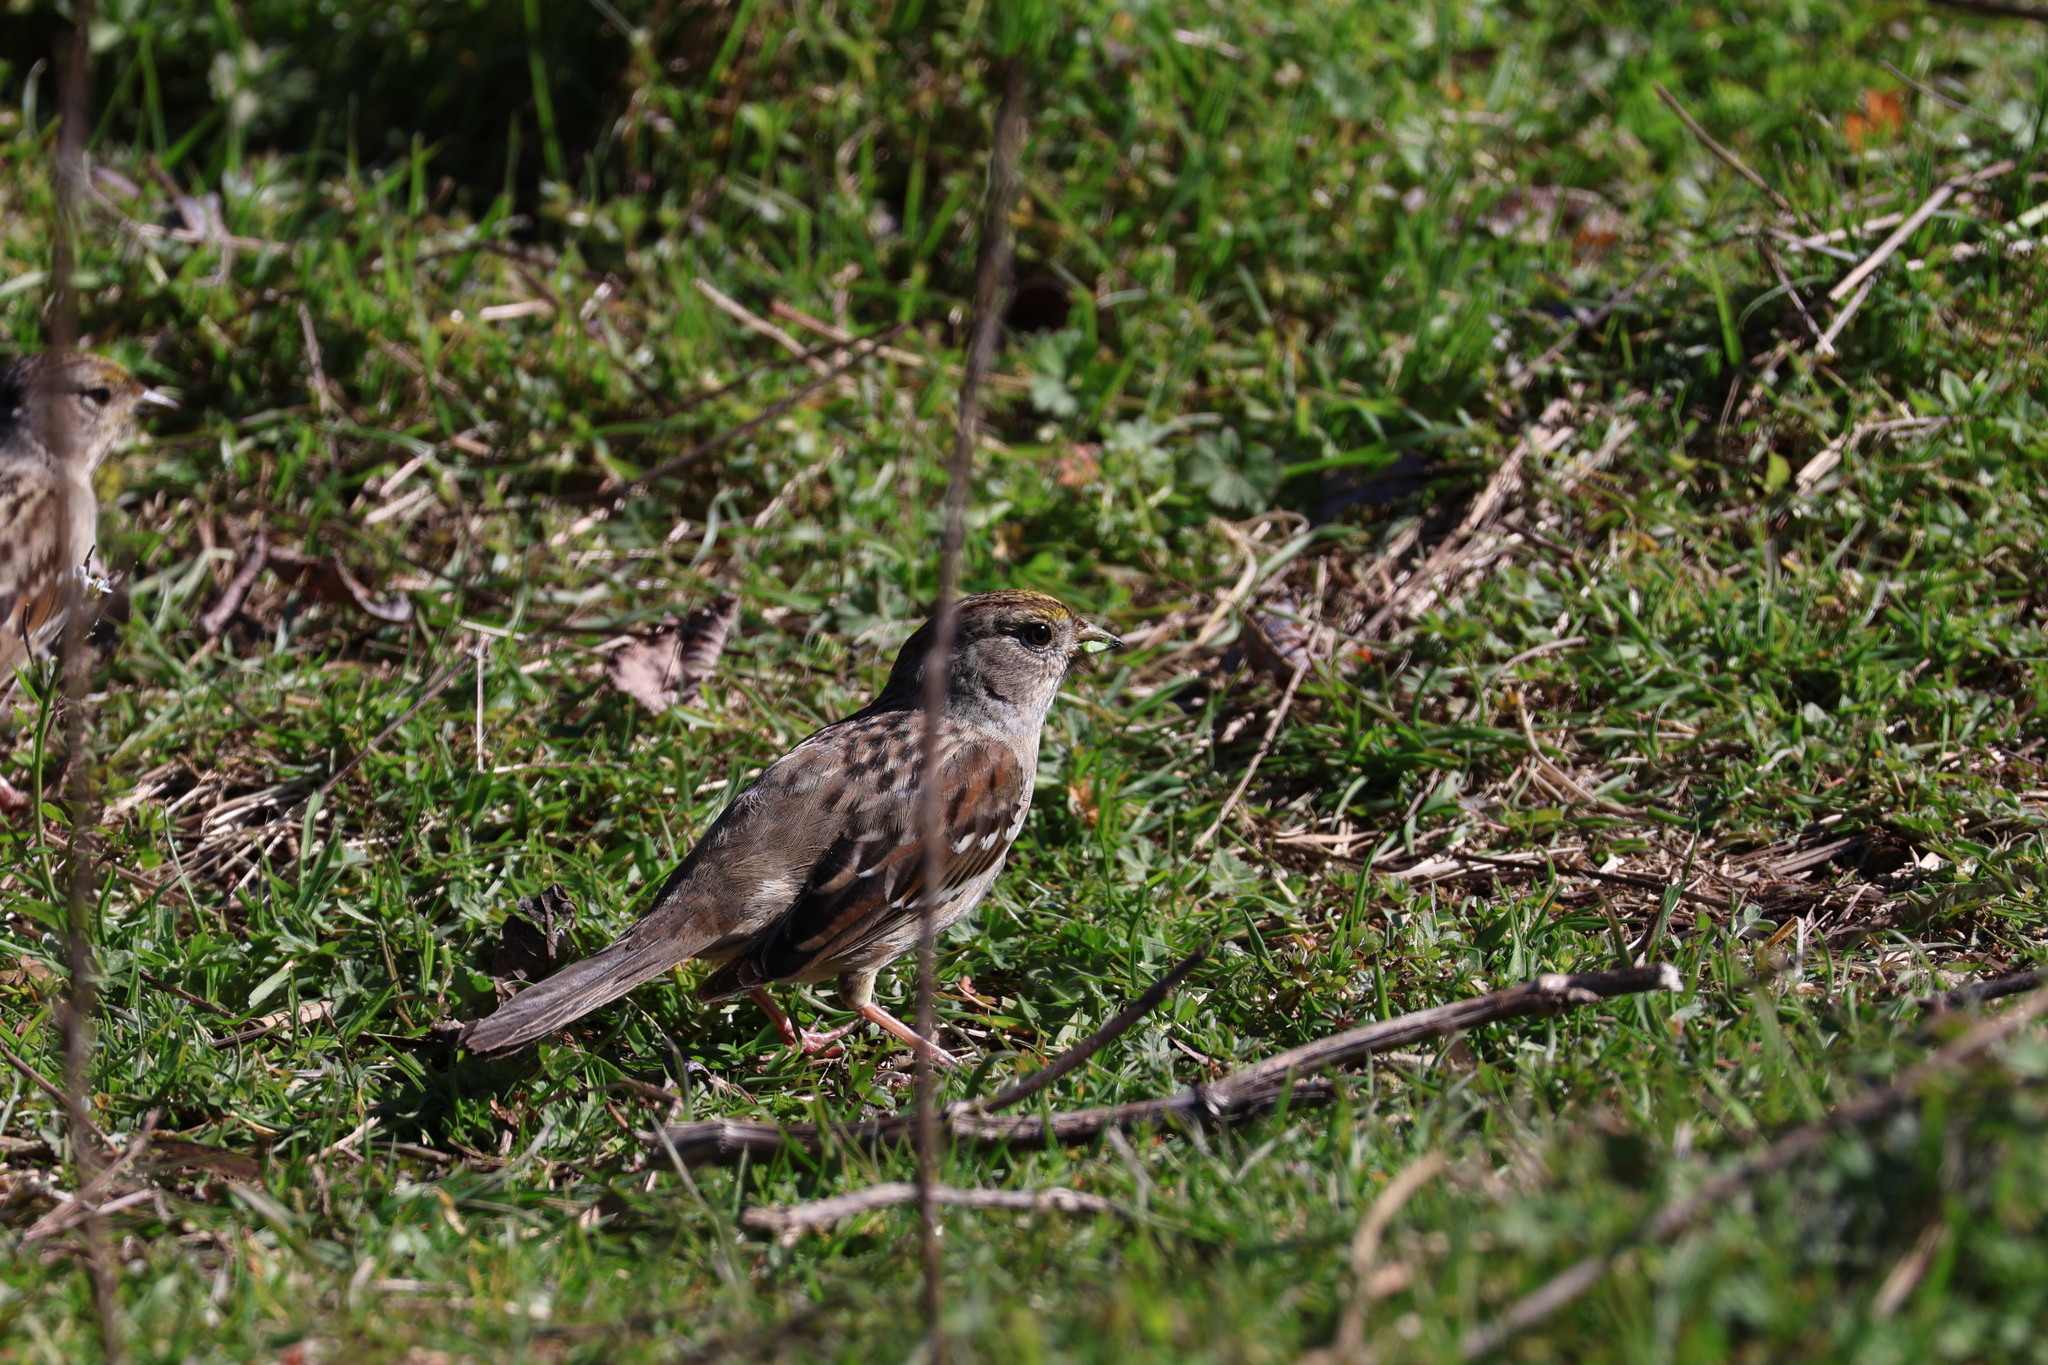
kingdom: Animalia
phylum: Chordata
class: Aves
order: Passeriformes
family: Passerellidae
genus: Zonotrichia
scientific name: Zonotrichia atricapilla
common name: Golden-crowned sparrow
